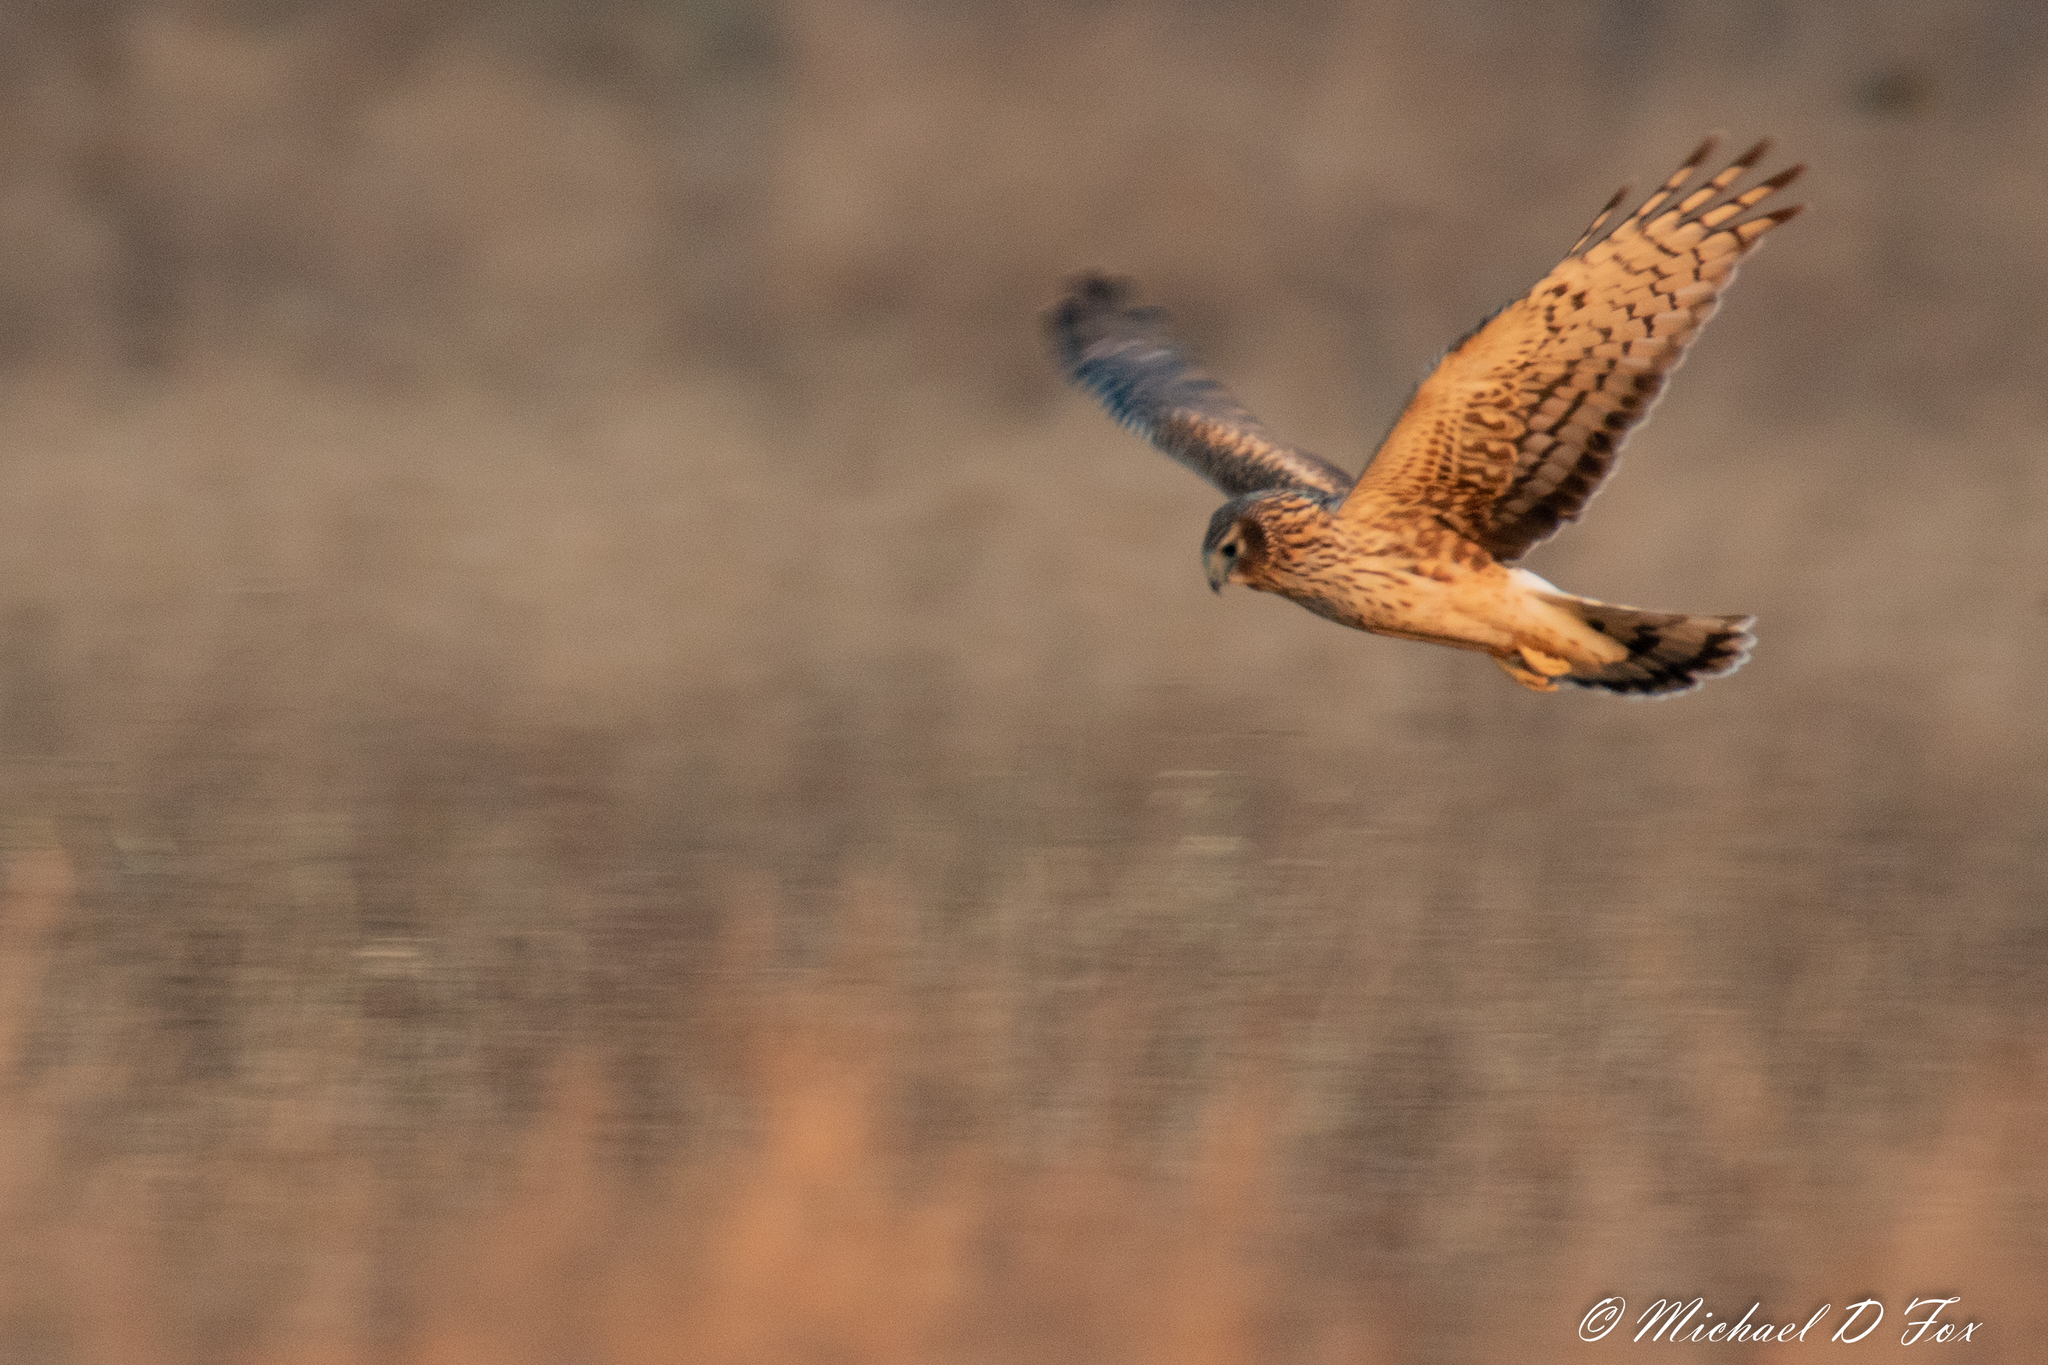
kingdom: Animalia
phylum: Chordata
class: Aves
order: Accipitriformes
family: Accipitridae
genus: Circus
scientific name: Circus cyaneus
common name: Hen harrier
